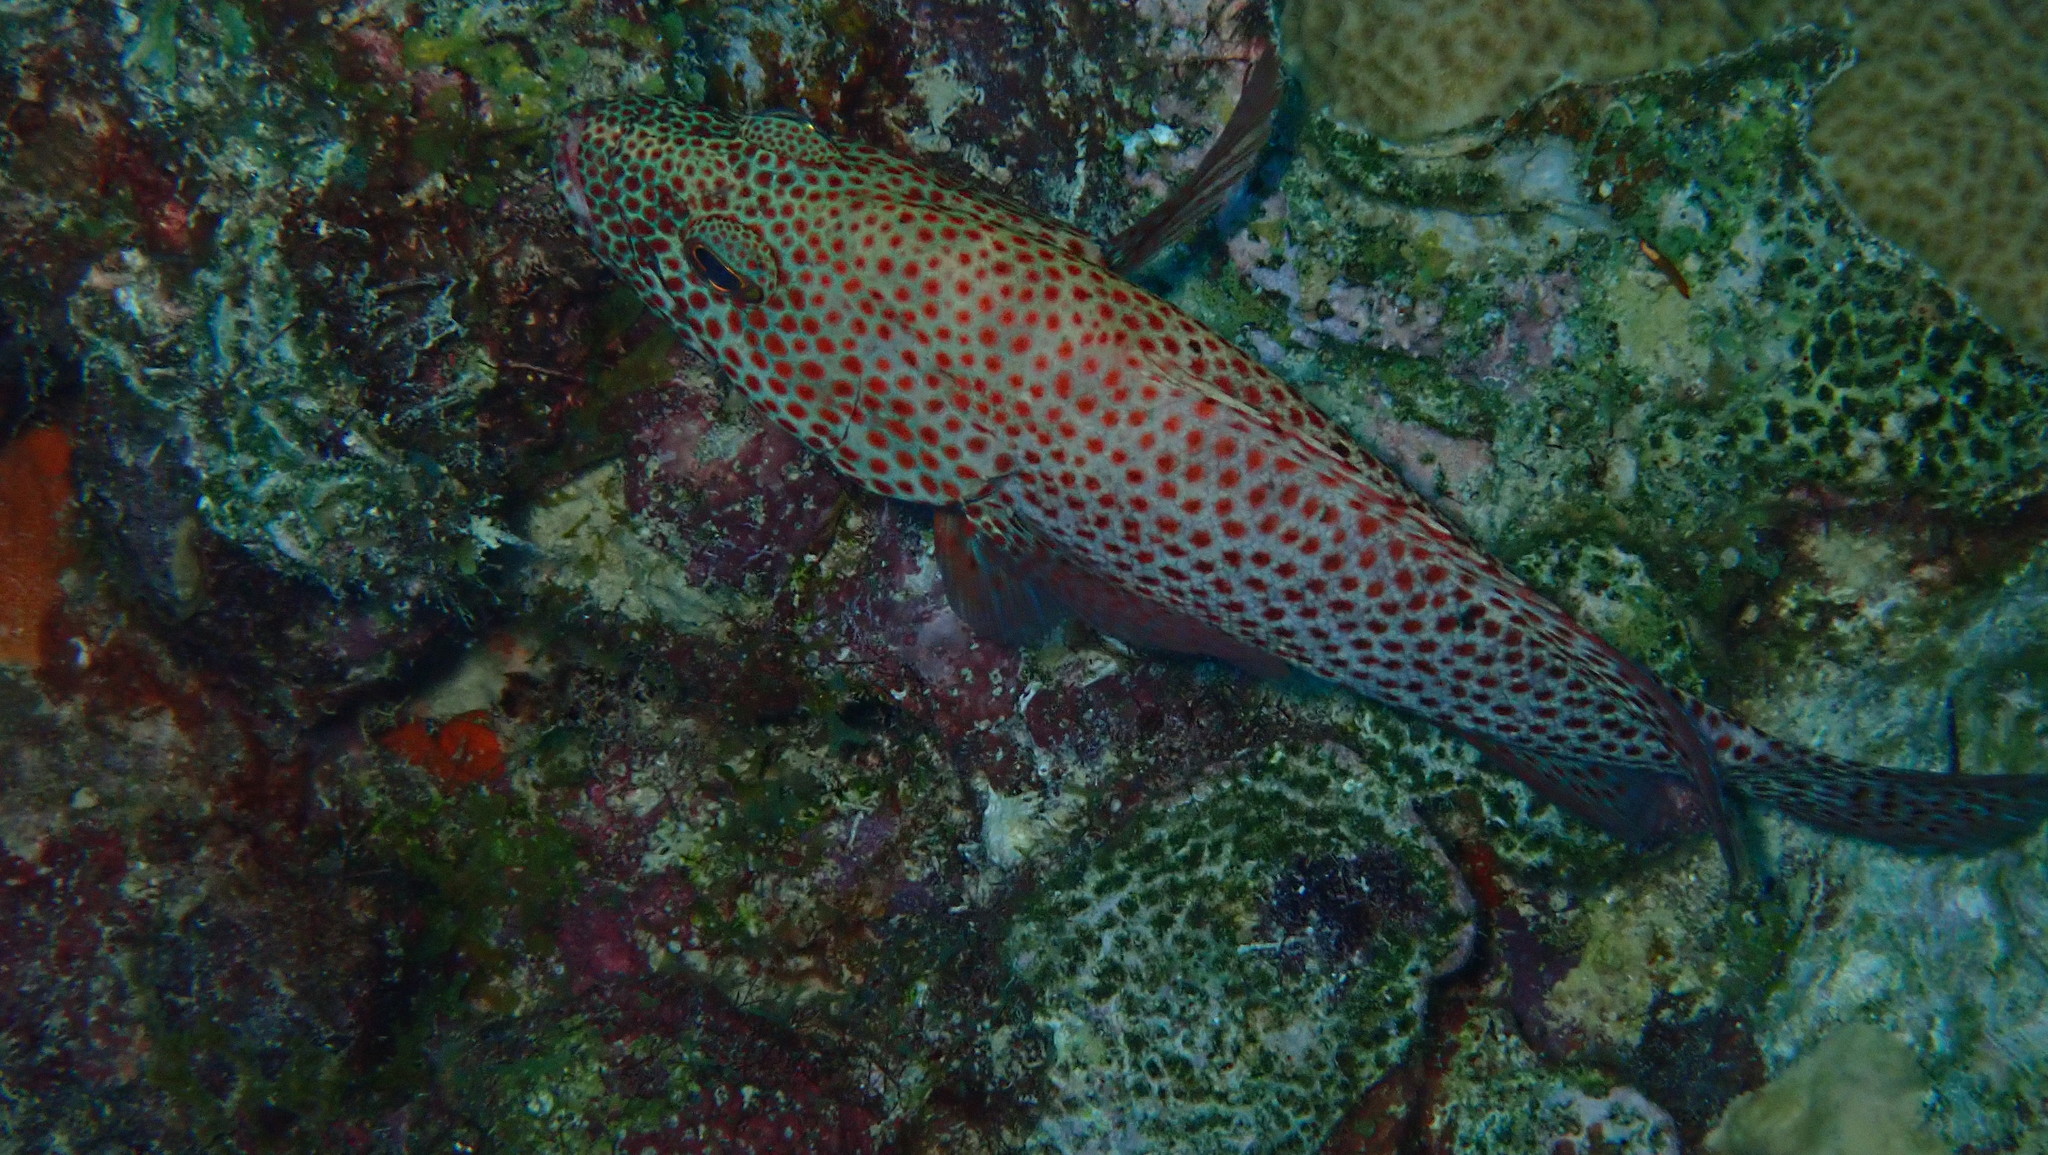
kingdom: Animalia
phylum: Chordata
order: Perciformes
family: Serranidae
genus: Cephalopholis
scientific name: Cephalopholis cruentata
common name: Graysby
